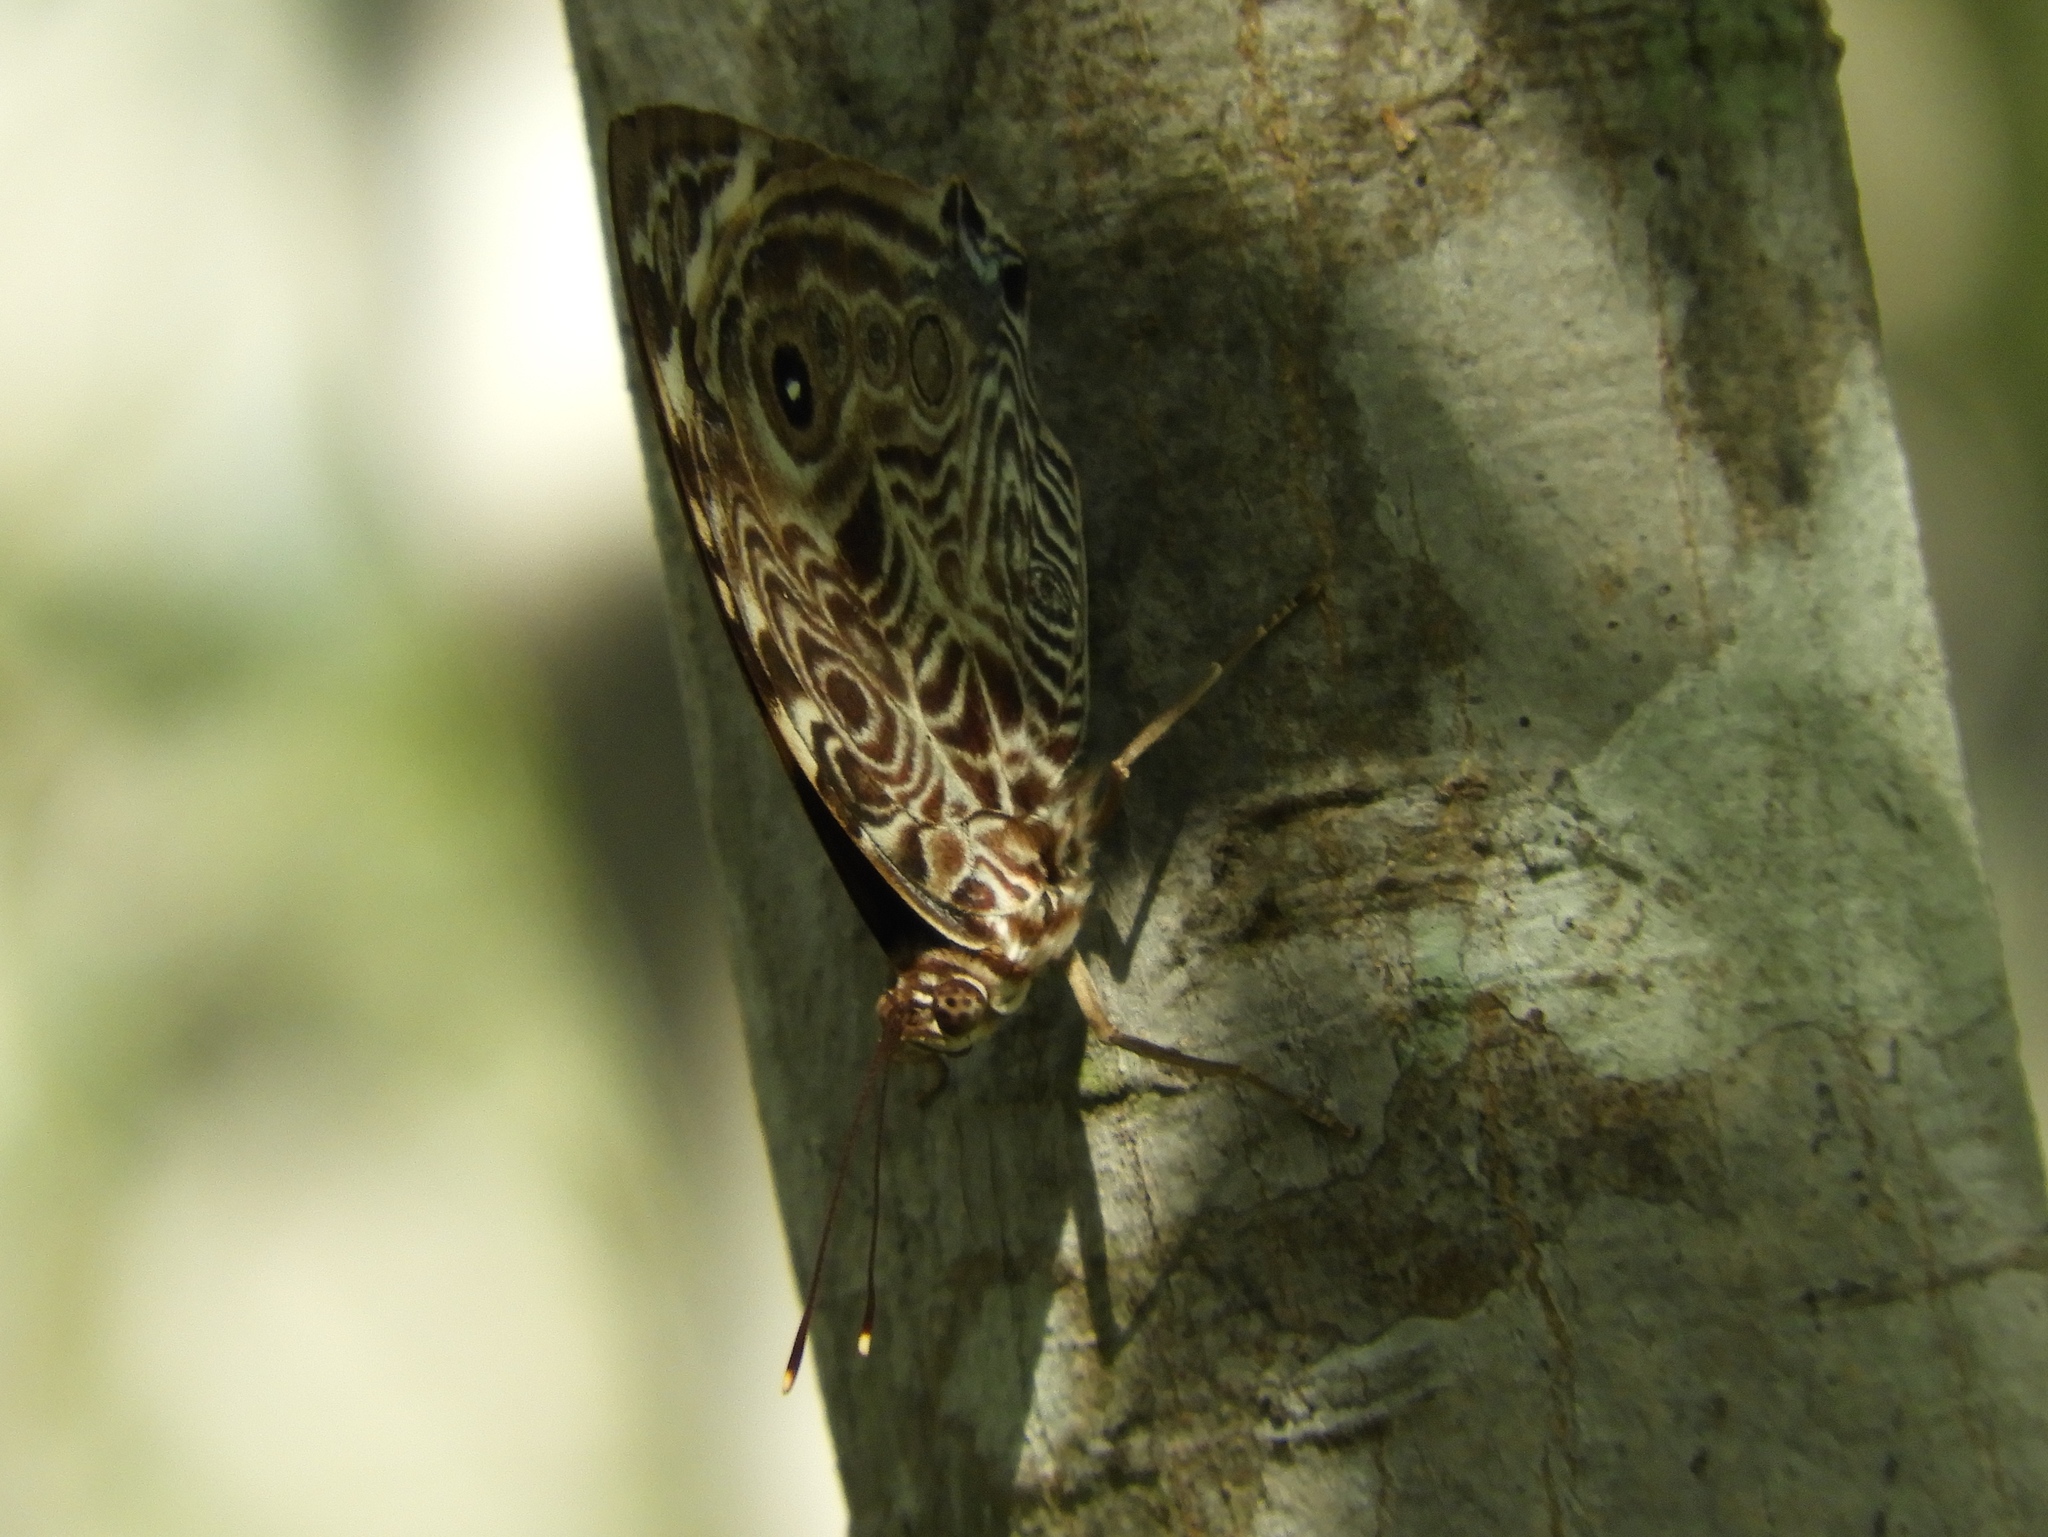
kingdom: Animalia
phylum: Arthropoda
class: Insecta
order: Lepidoptera
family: Nymphalidae
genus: Smyrna
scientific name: Smyrna blomfildia
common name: Blomfild's beauty
